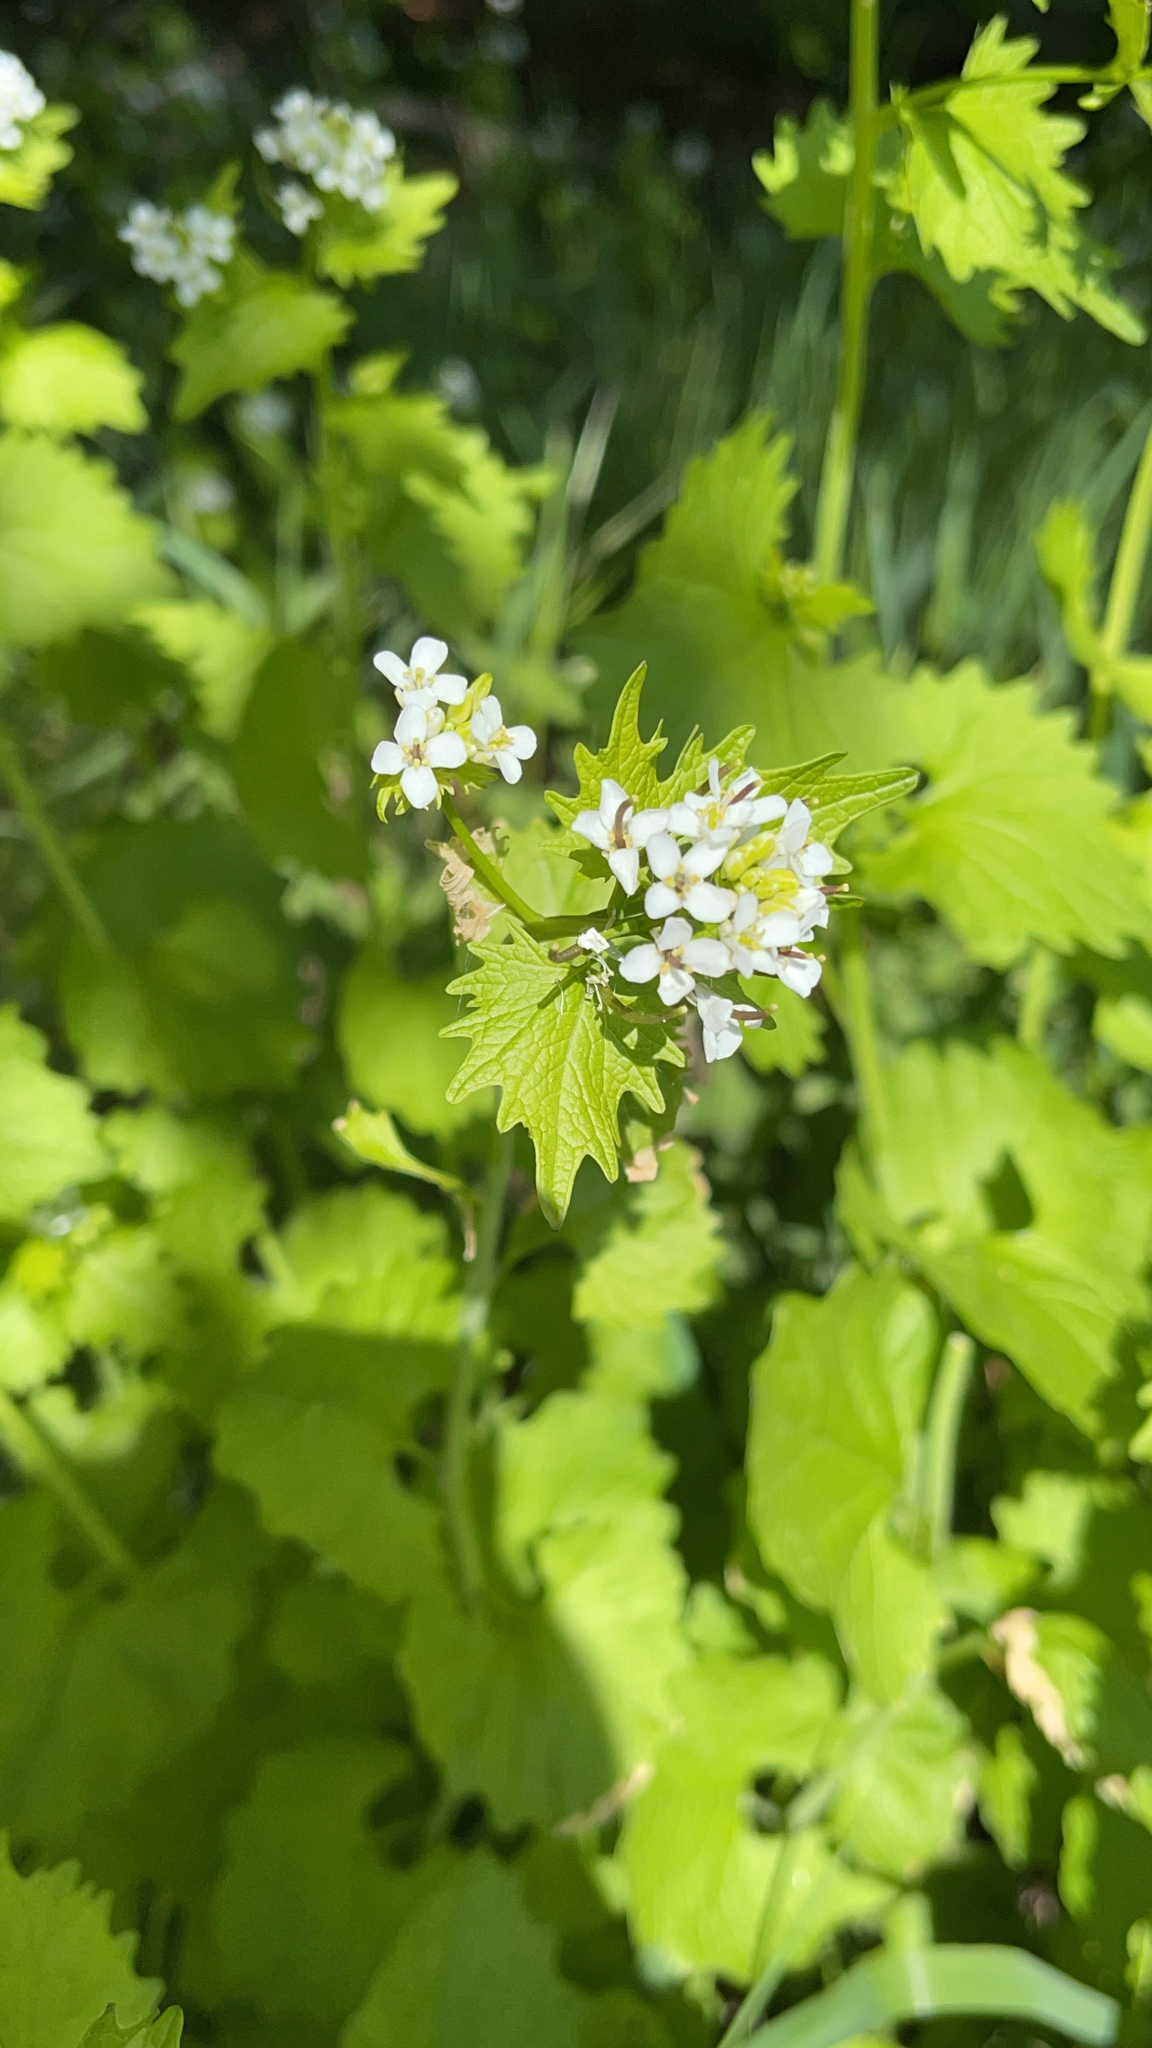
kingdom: Plantae
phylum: Tracheophyta
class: Magnoliopsida
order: Brassicales
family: Brassicaceae
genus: Alliaria
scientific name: Alliaria petiolata
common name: Garlic mustard
